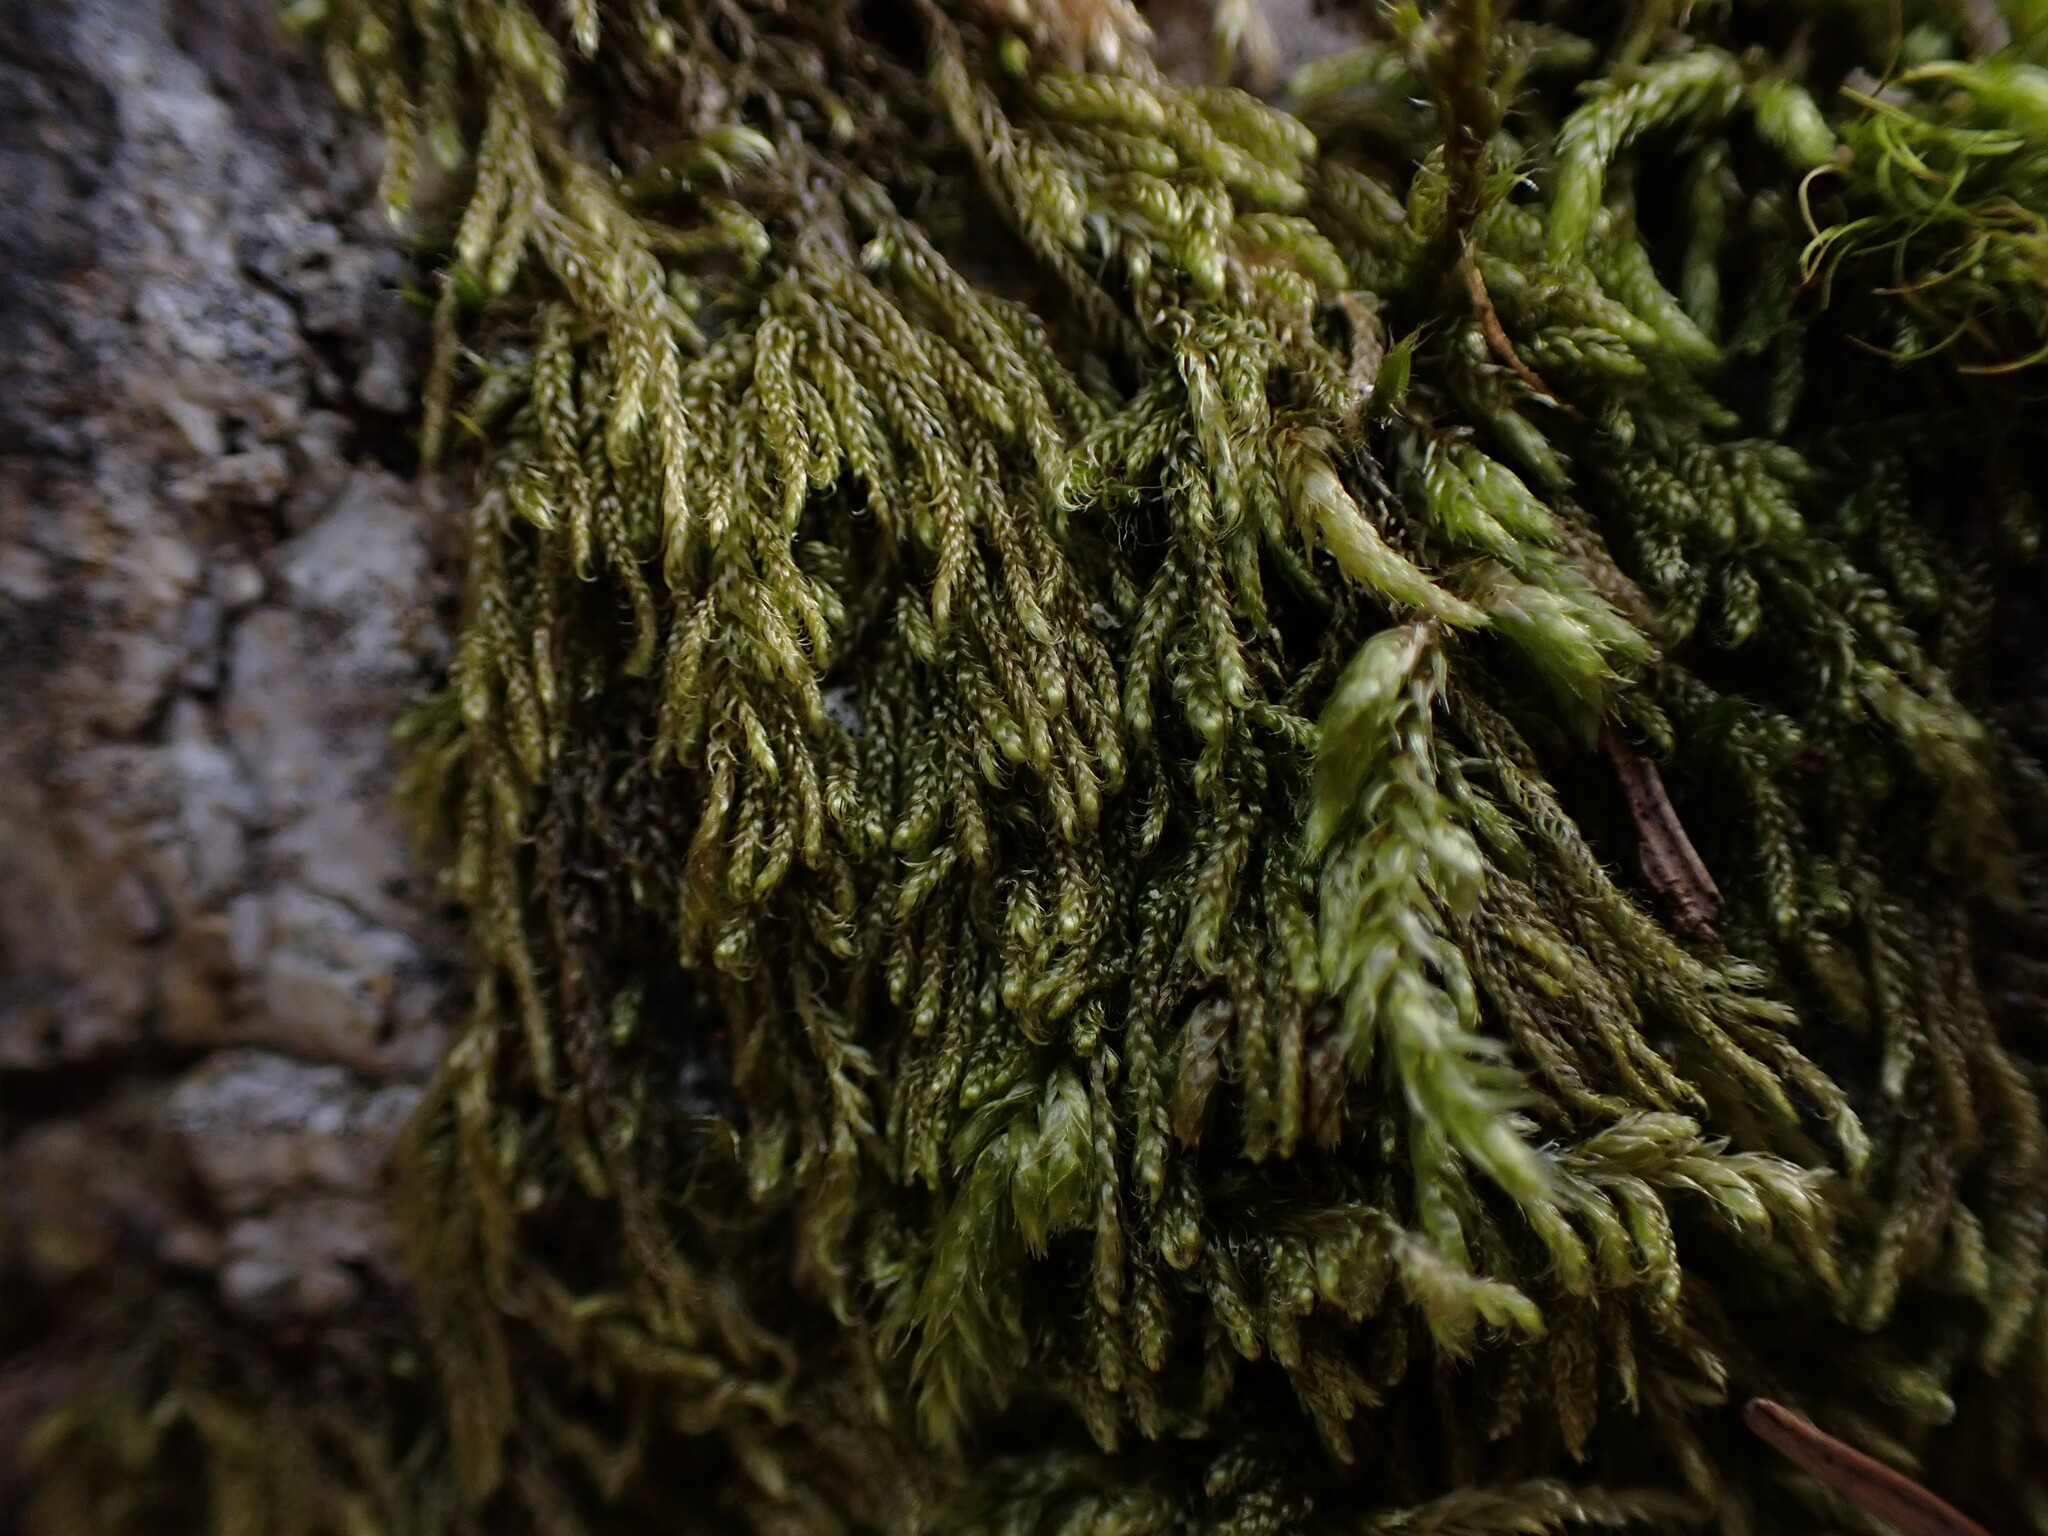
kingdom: Plantae
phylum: Bryophyta
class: Bryopsida
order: Hypnales
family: Pylaisiadelphaceae
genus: Trochophyllohypnum
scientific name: Trochophyllohypnum circinale
